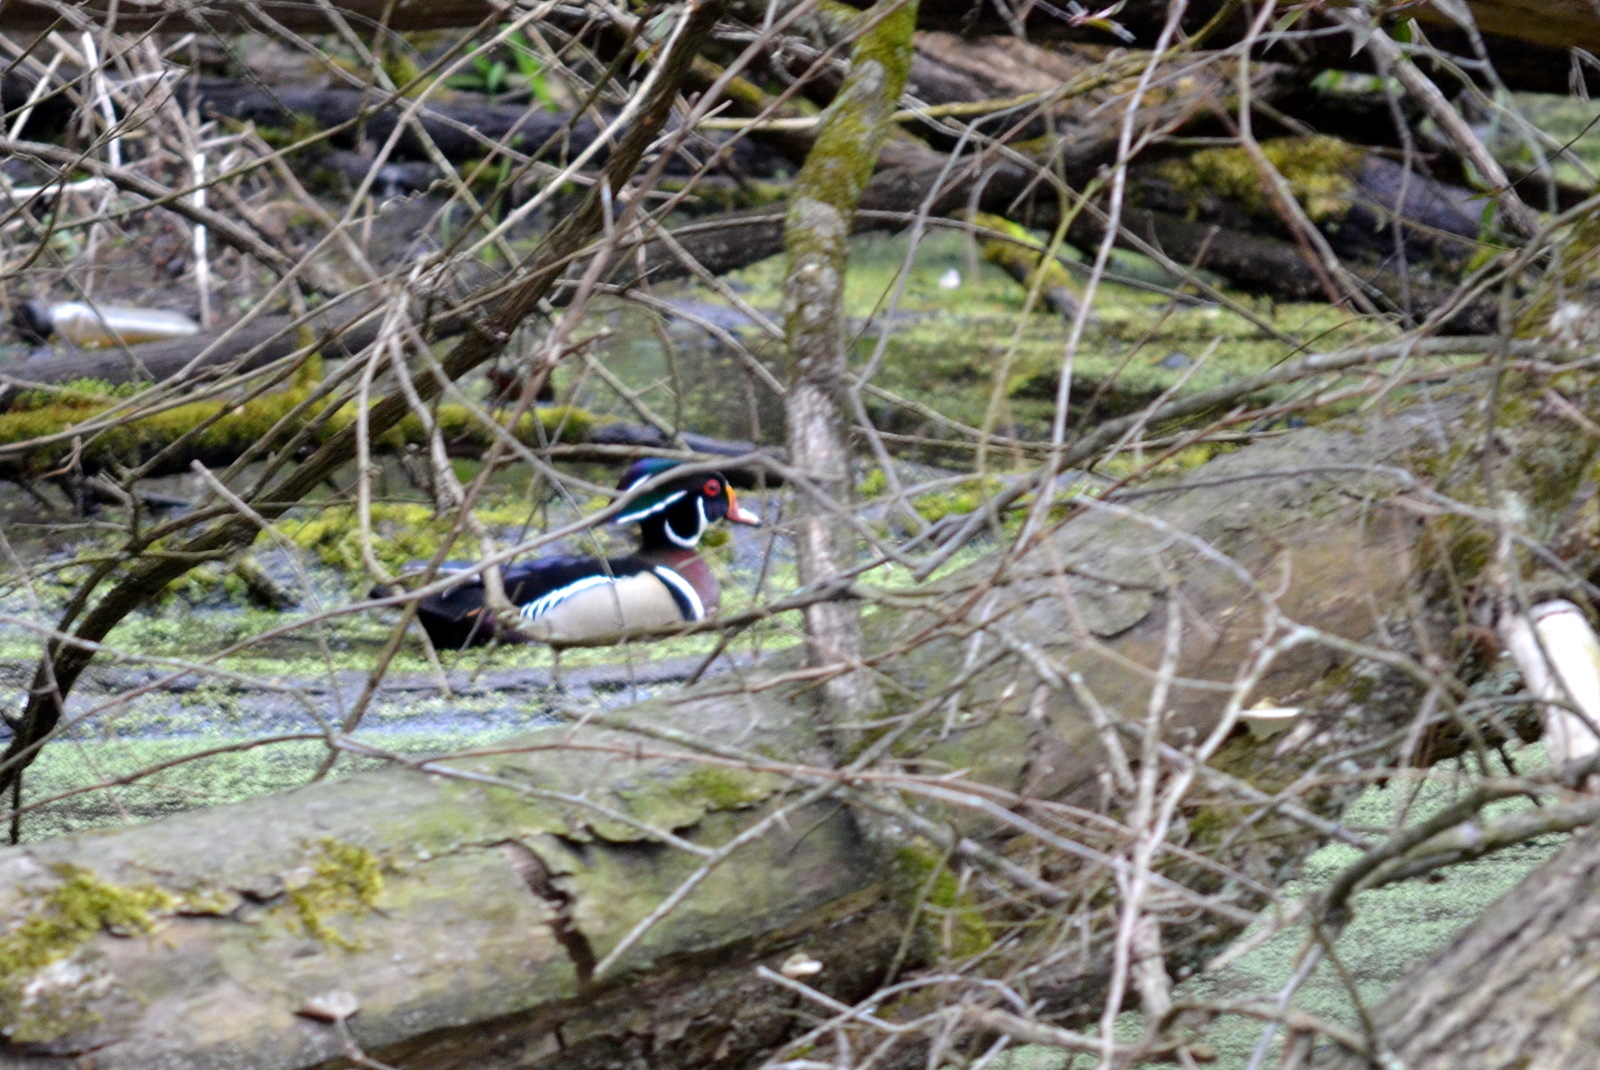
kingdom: Animalia
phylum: Chordata
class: Aves
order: Anseriformes
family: Anatidae
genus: Aix
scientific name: Aix sponsa
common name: Wood duck
